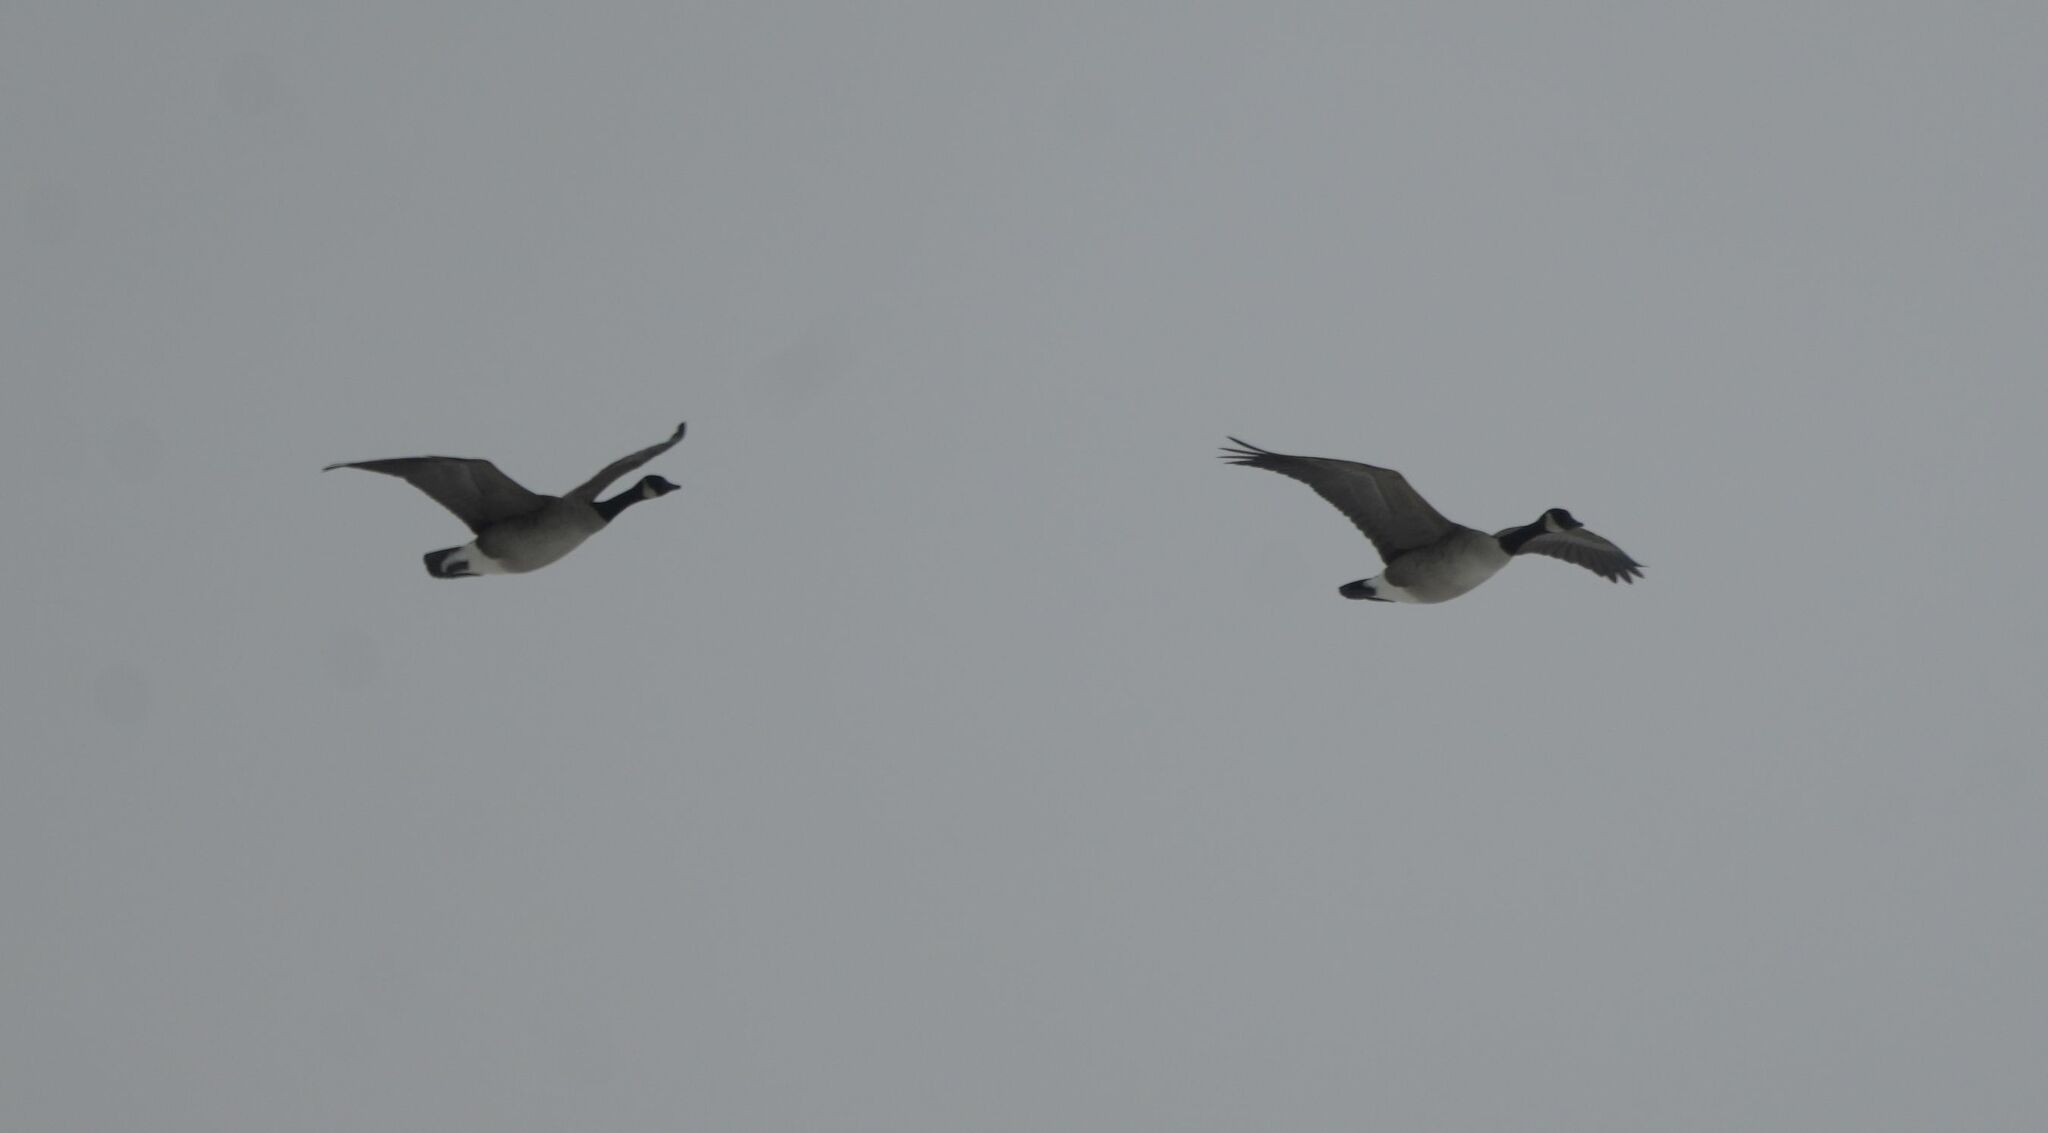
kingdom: Animalia
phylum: Chordata
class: Aves
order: Anseriformes
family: Anatidae
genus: Branta
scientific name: Branta canadensis
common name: Canada goose
